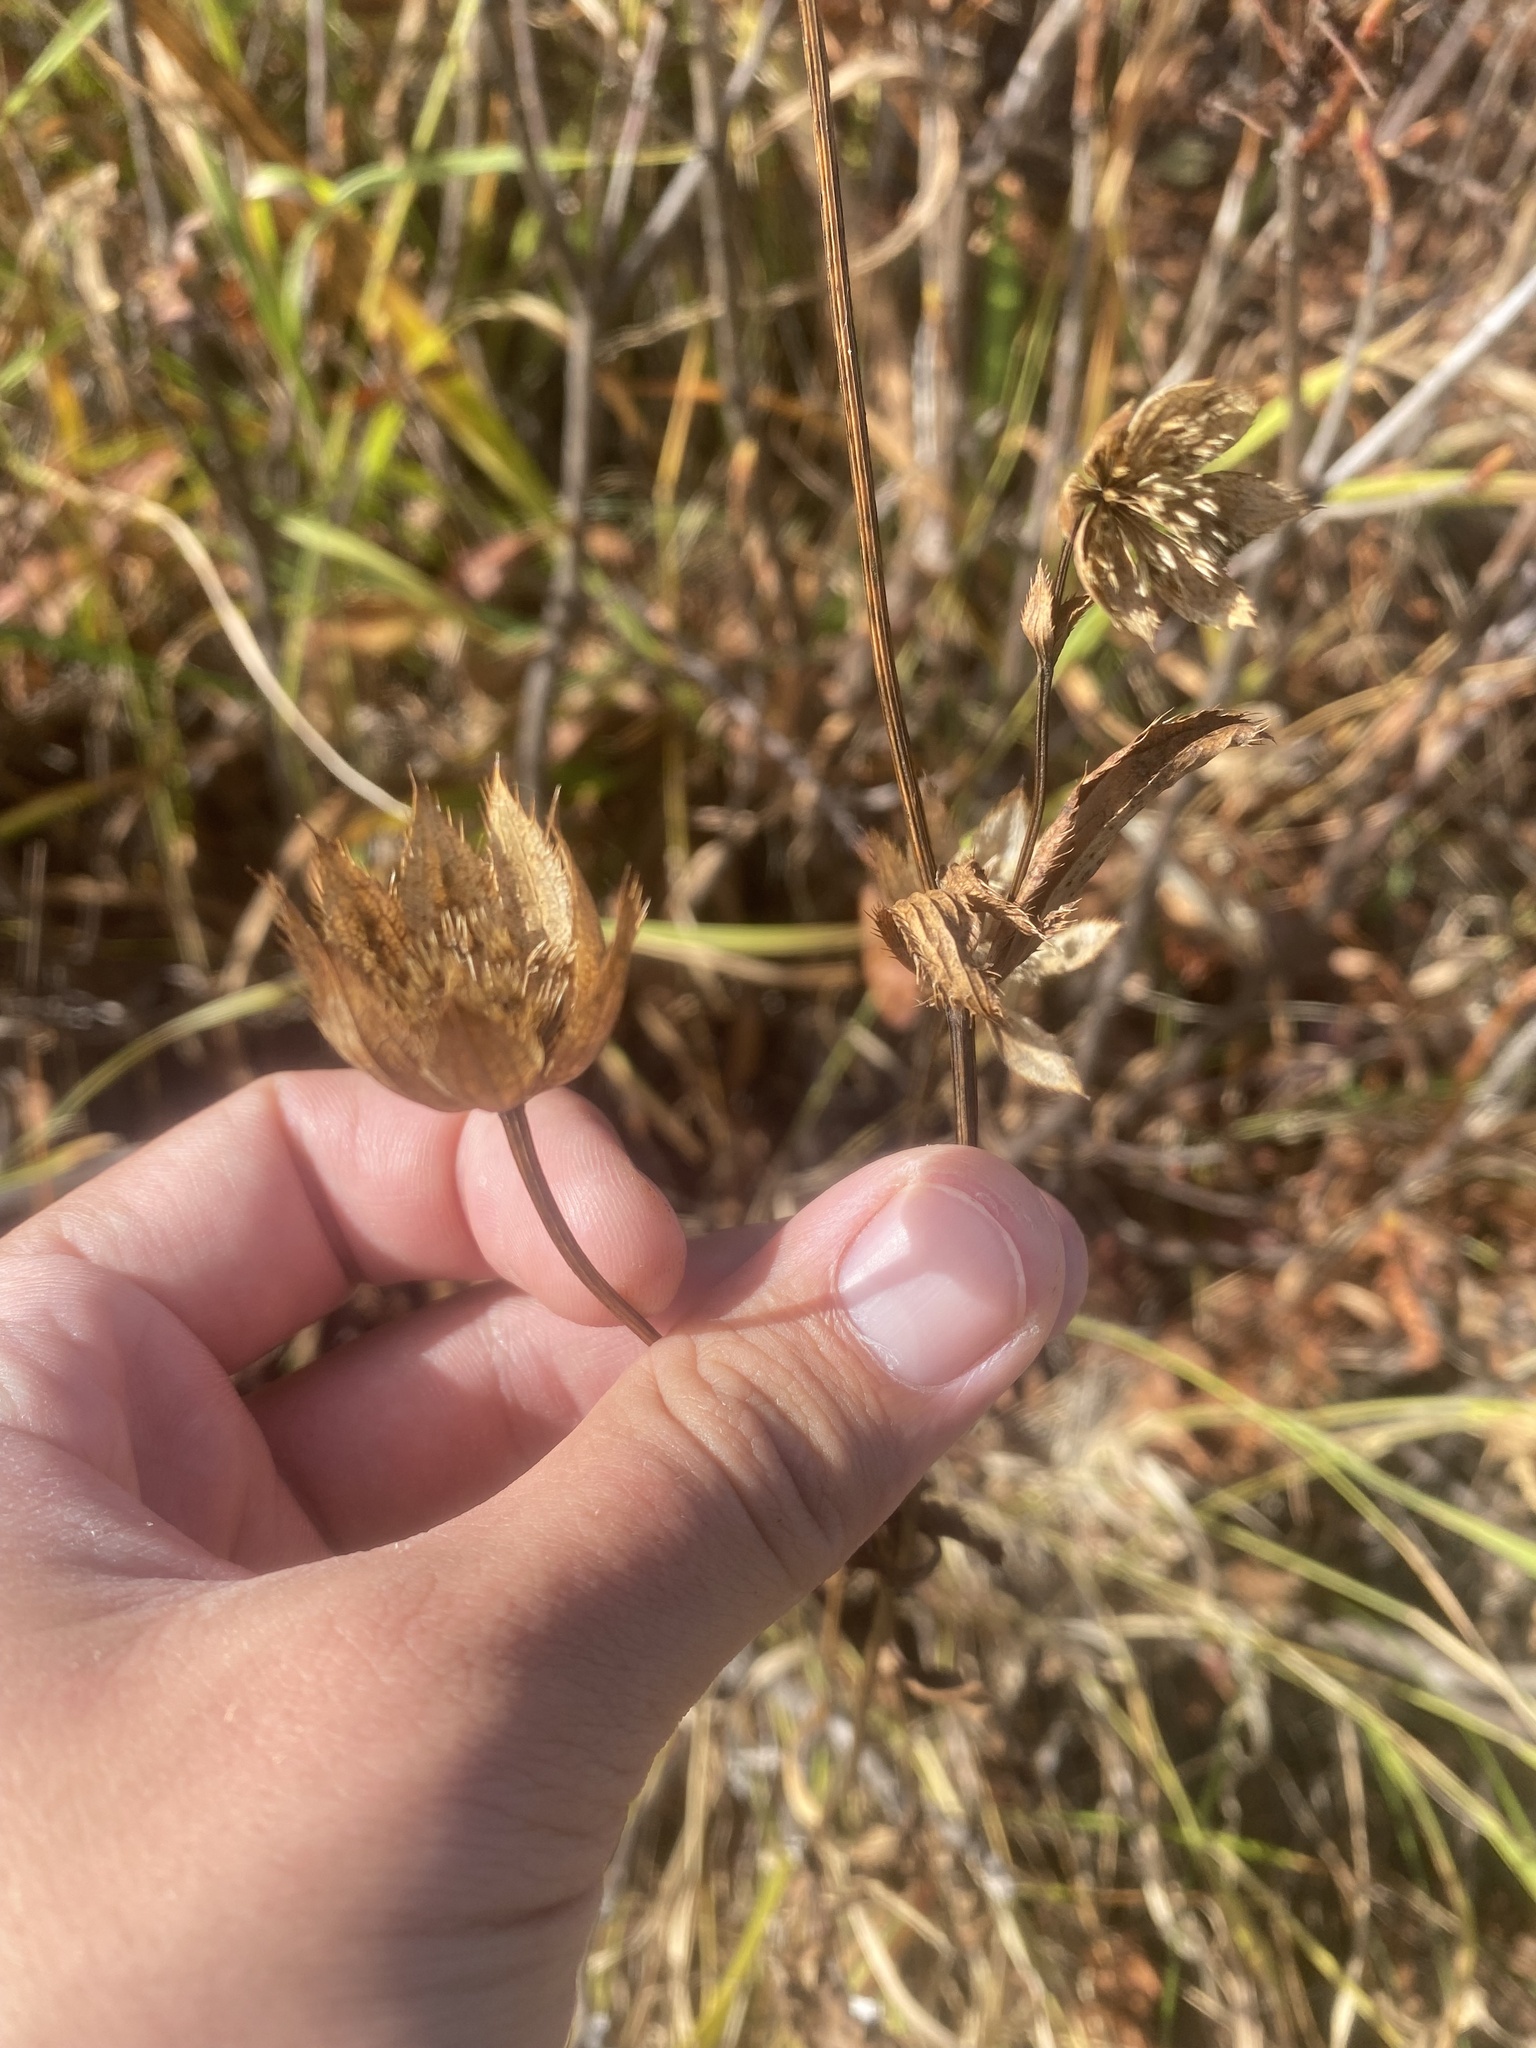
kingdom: Plantae
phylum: Tracheophyta
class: Magnoliopsida
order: Apiales
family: Apiaceae
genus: Astrantia
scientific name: Astrantia maxima
